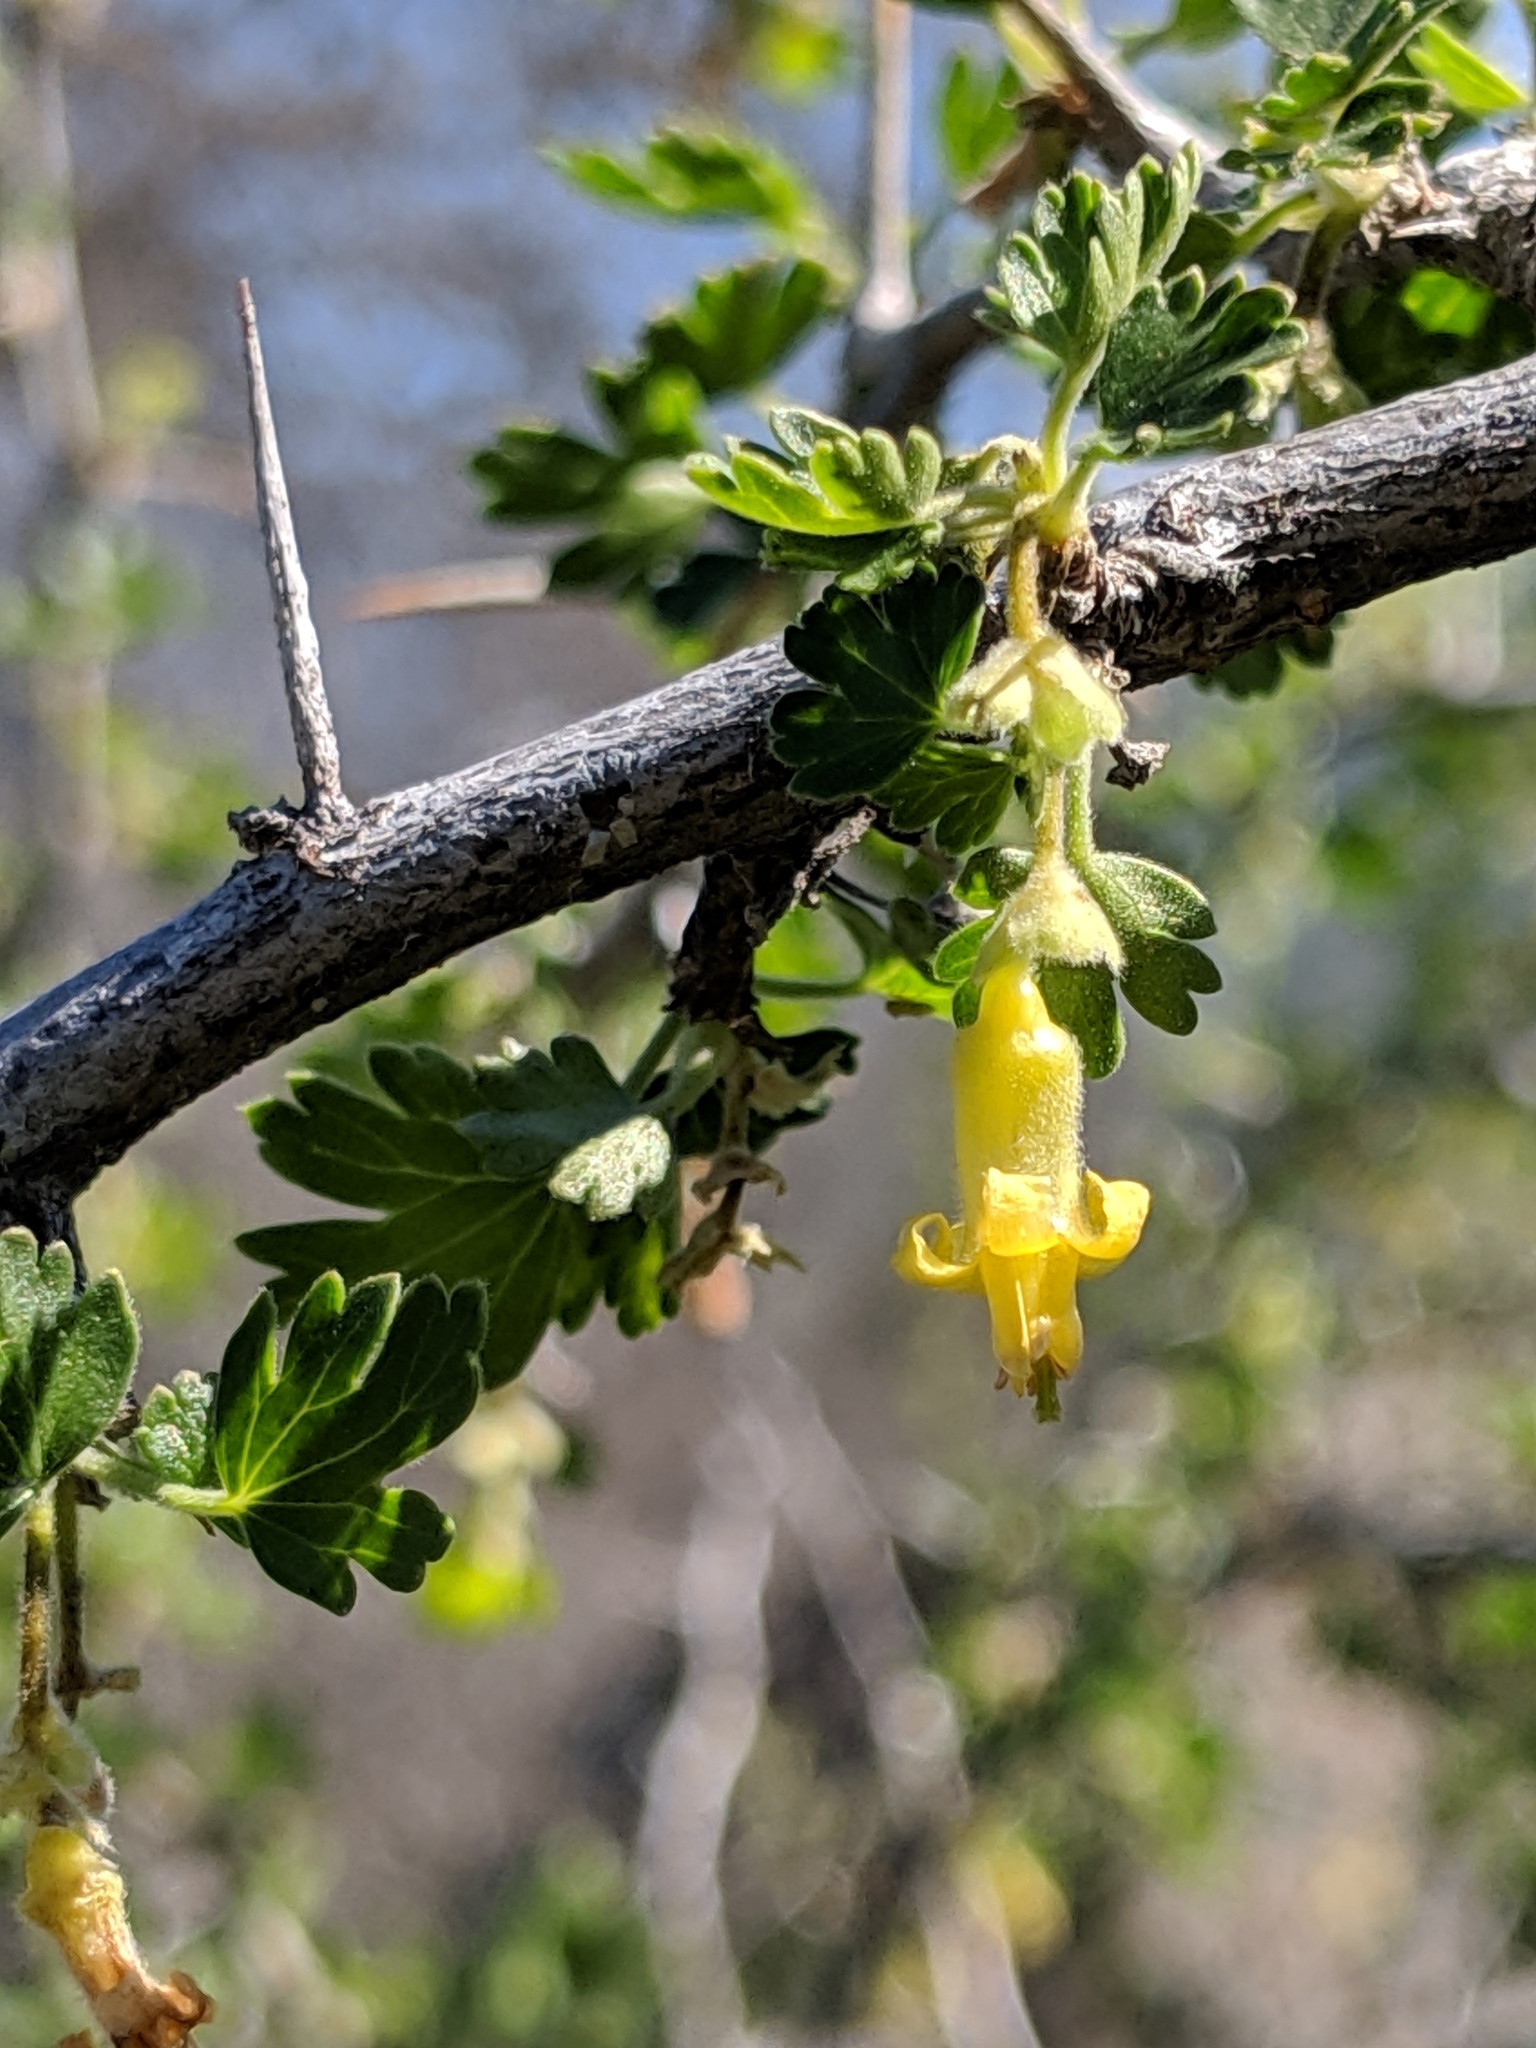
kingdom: Plantae
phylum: Tracheophyta
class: Magnoliopsida
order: Saxifragales
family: Grossulariaceae
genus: Ribes
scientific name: Ribes quercetorum
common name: Oak gooseberry
